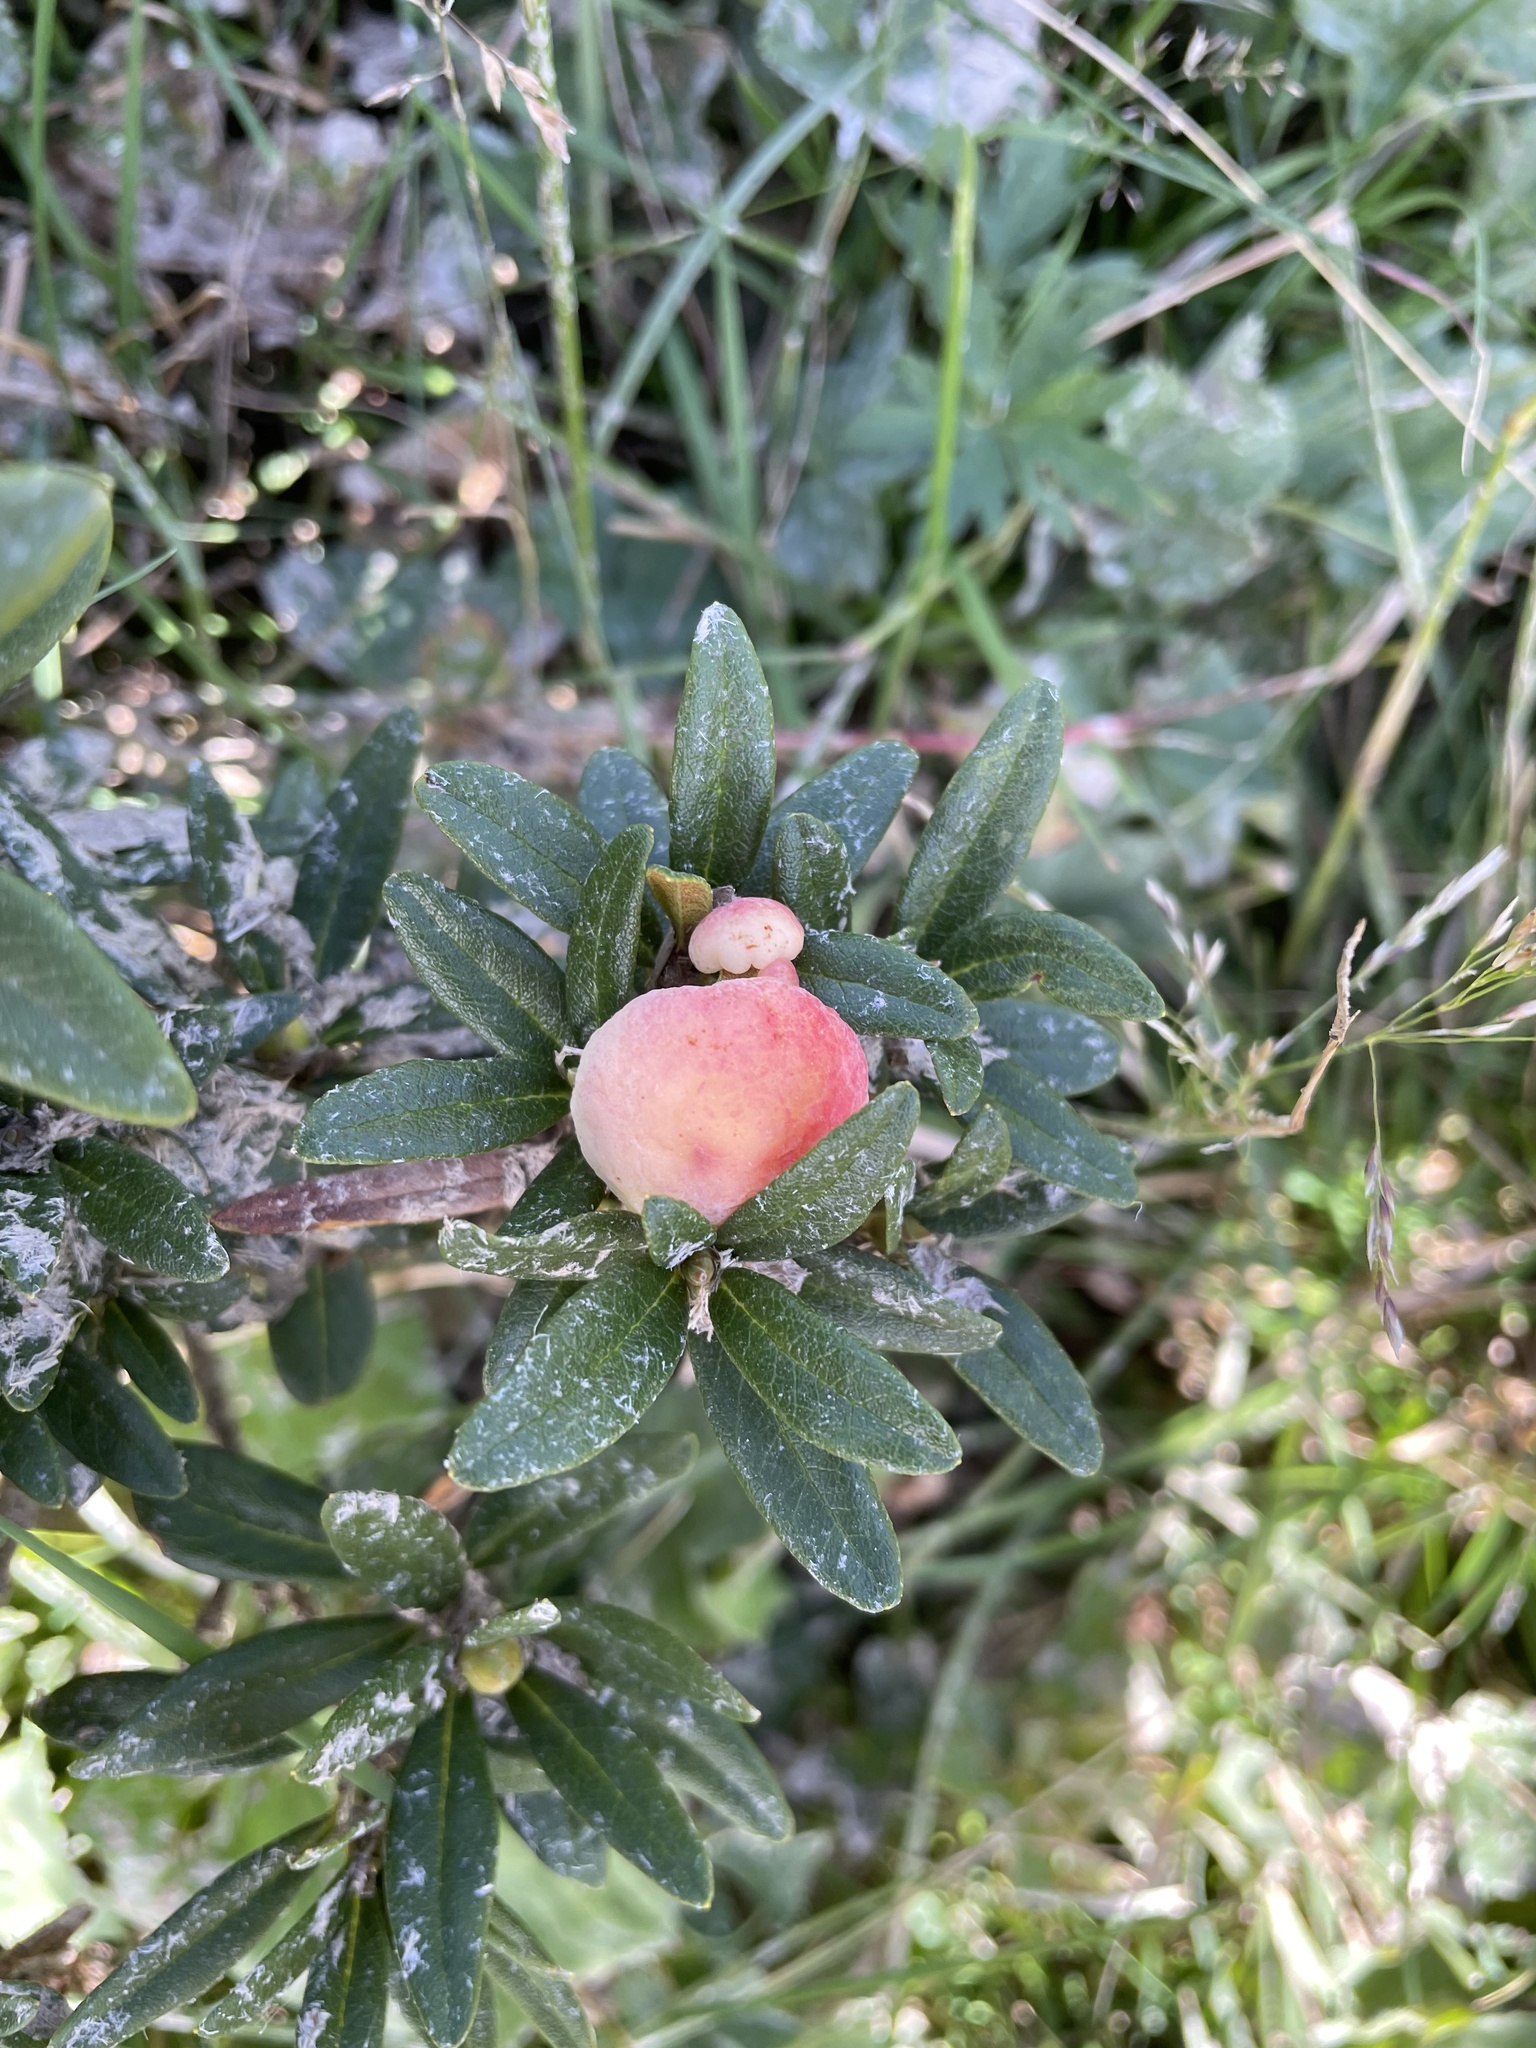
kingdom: Fungi
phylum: Basidiomycota
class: Exobasidiomycetes
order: Exobasidiales
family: Exobasidiaceae
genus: Exobasidium
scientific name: Exobasidium rhododendri
